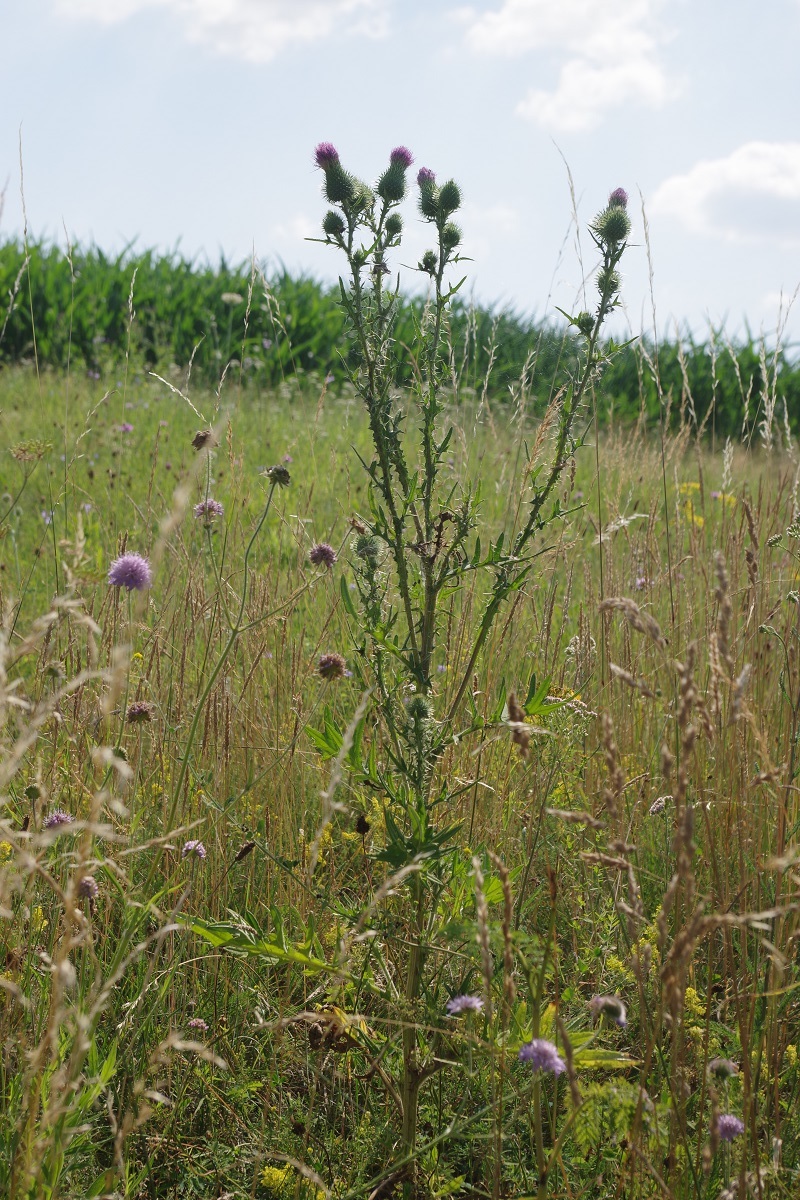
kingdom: Plantae
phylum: Tracheophyta
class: Magnoliopsida
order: Asterales
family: Asteraceae
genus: Cirsium
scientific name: Cirsium vulgare
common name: Bull thistle
